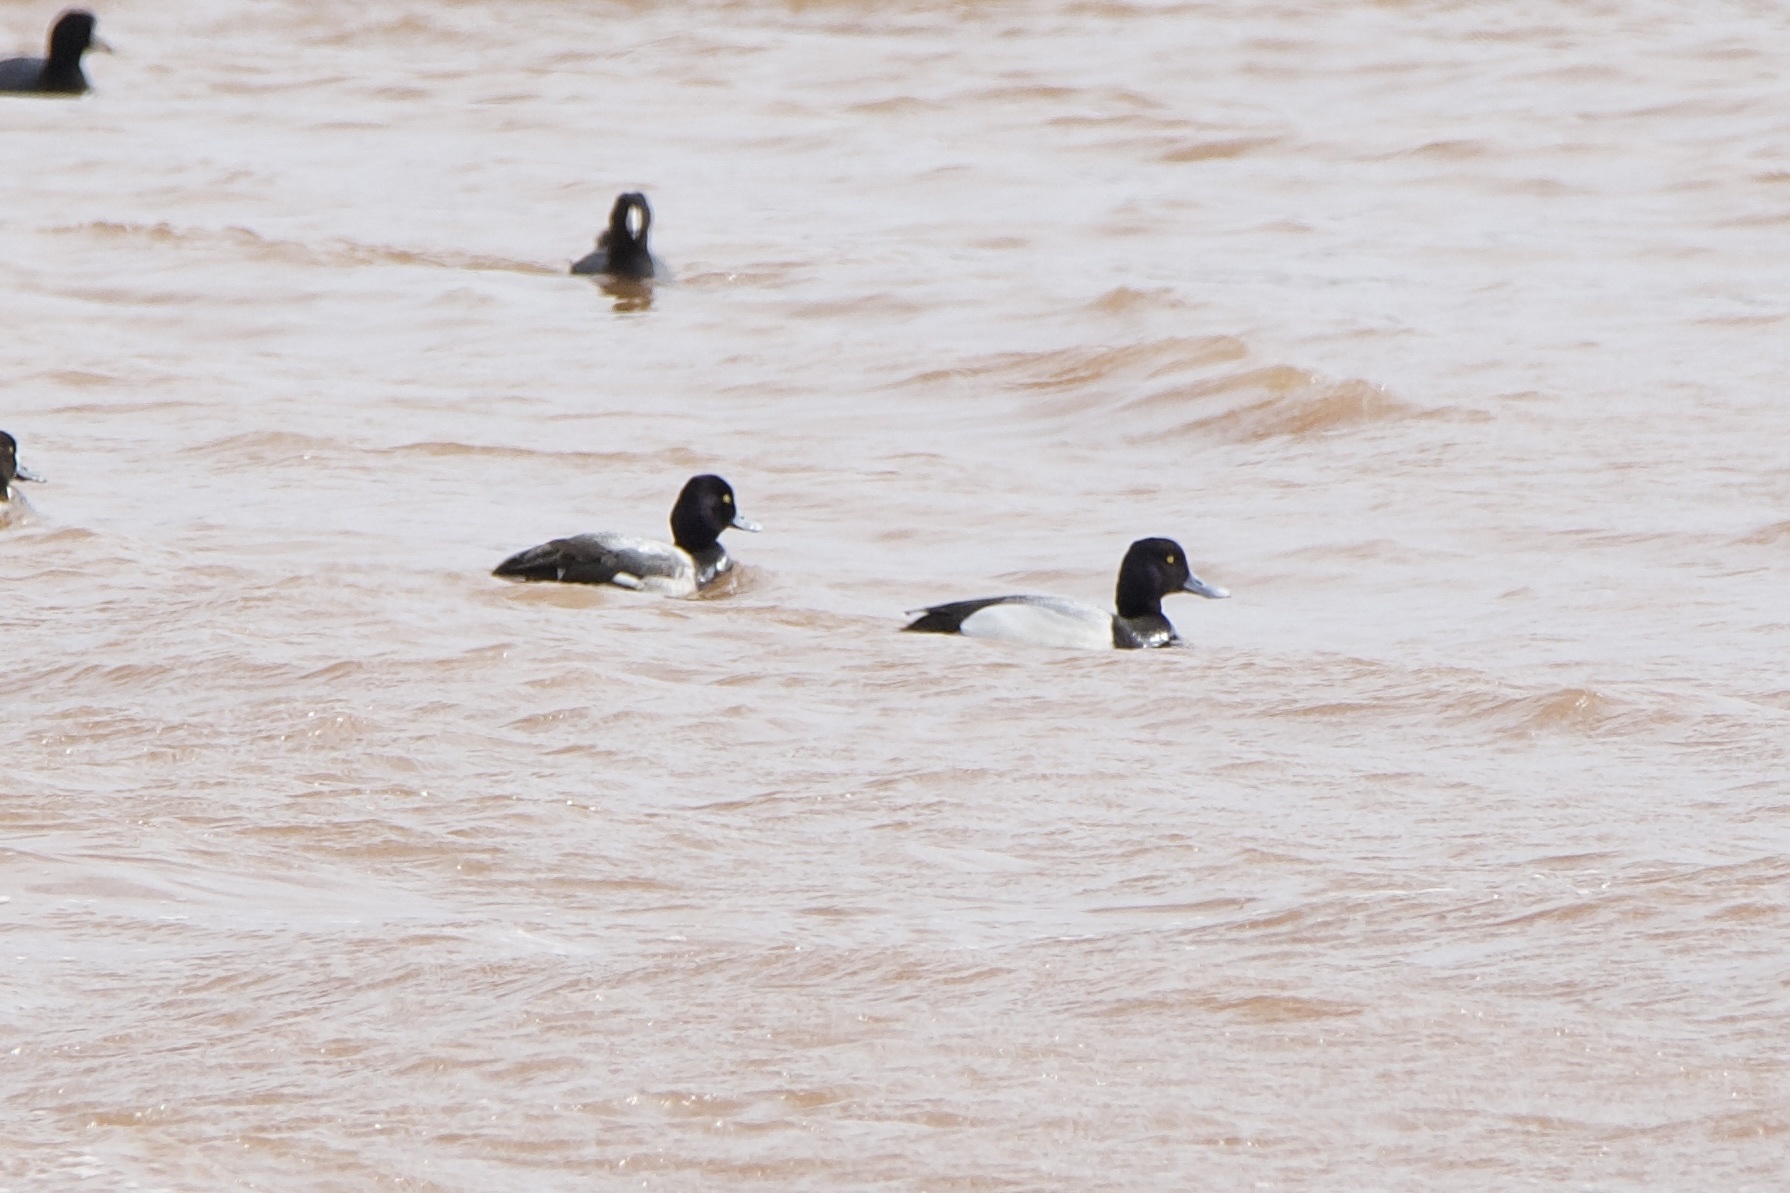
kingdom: Animalia
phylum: Chordata
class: Aves
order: Anseriformes
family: Anatidae
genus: Aythya
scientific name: Aythya affinis
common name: Lesser scaup
